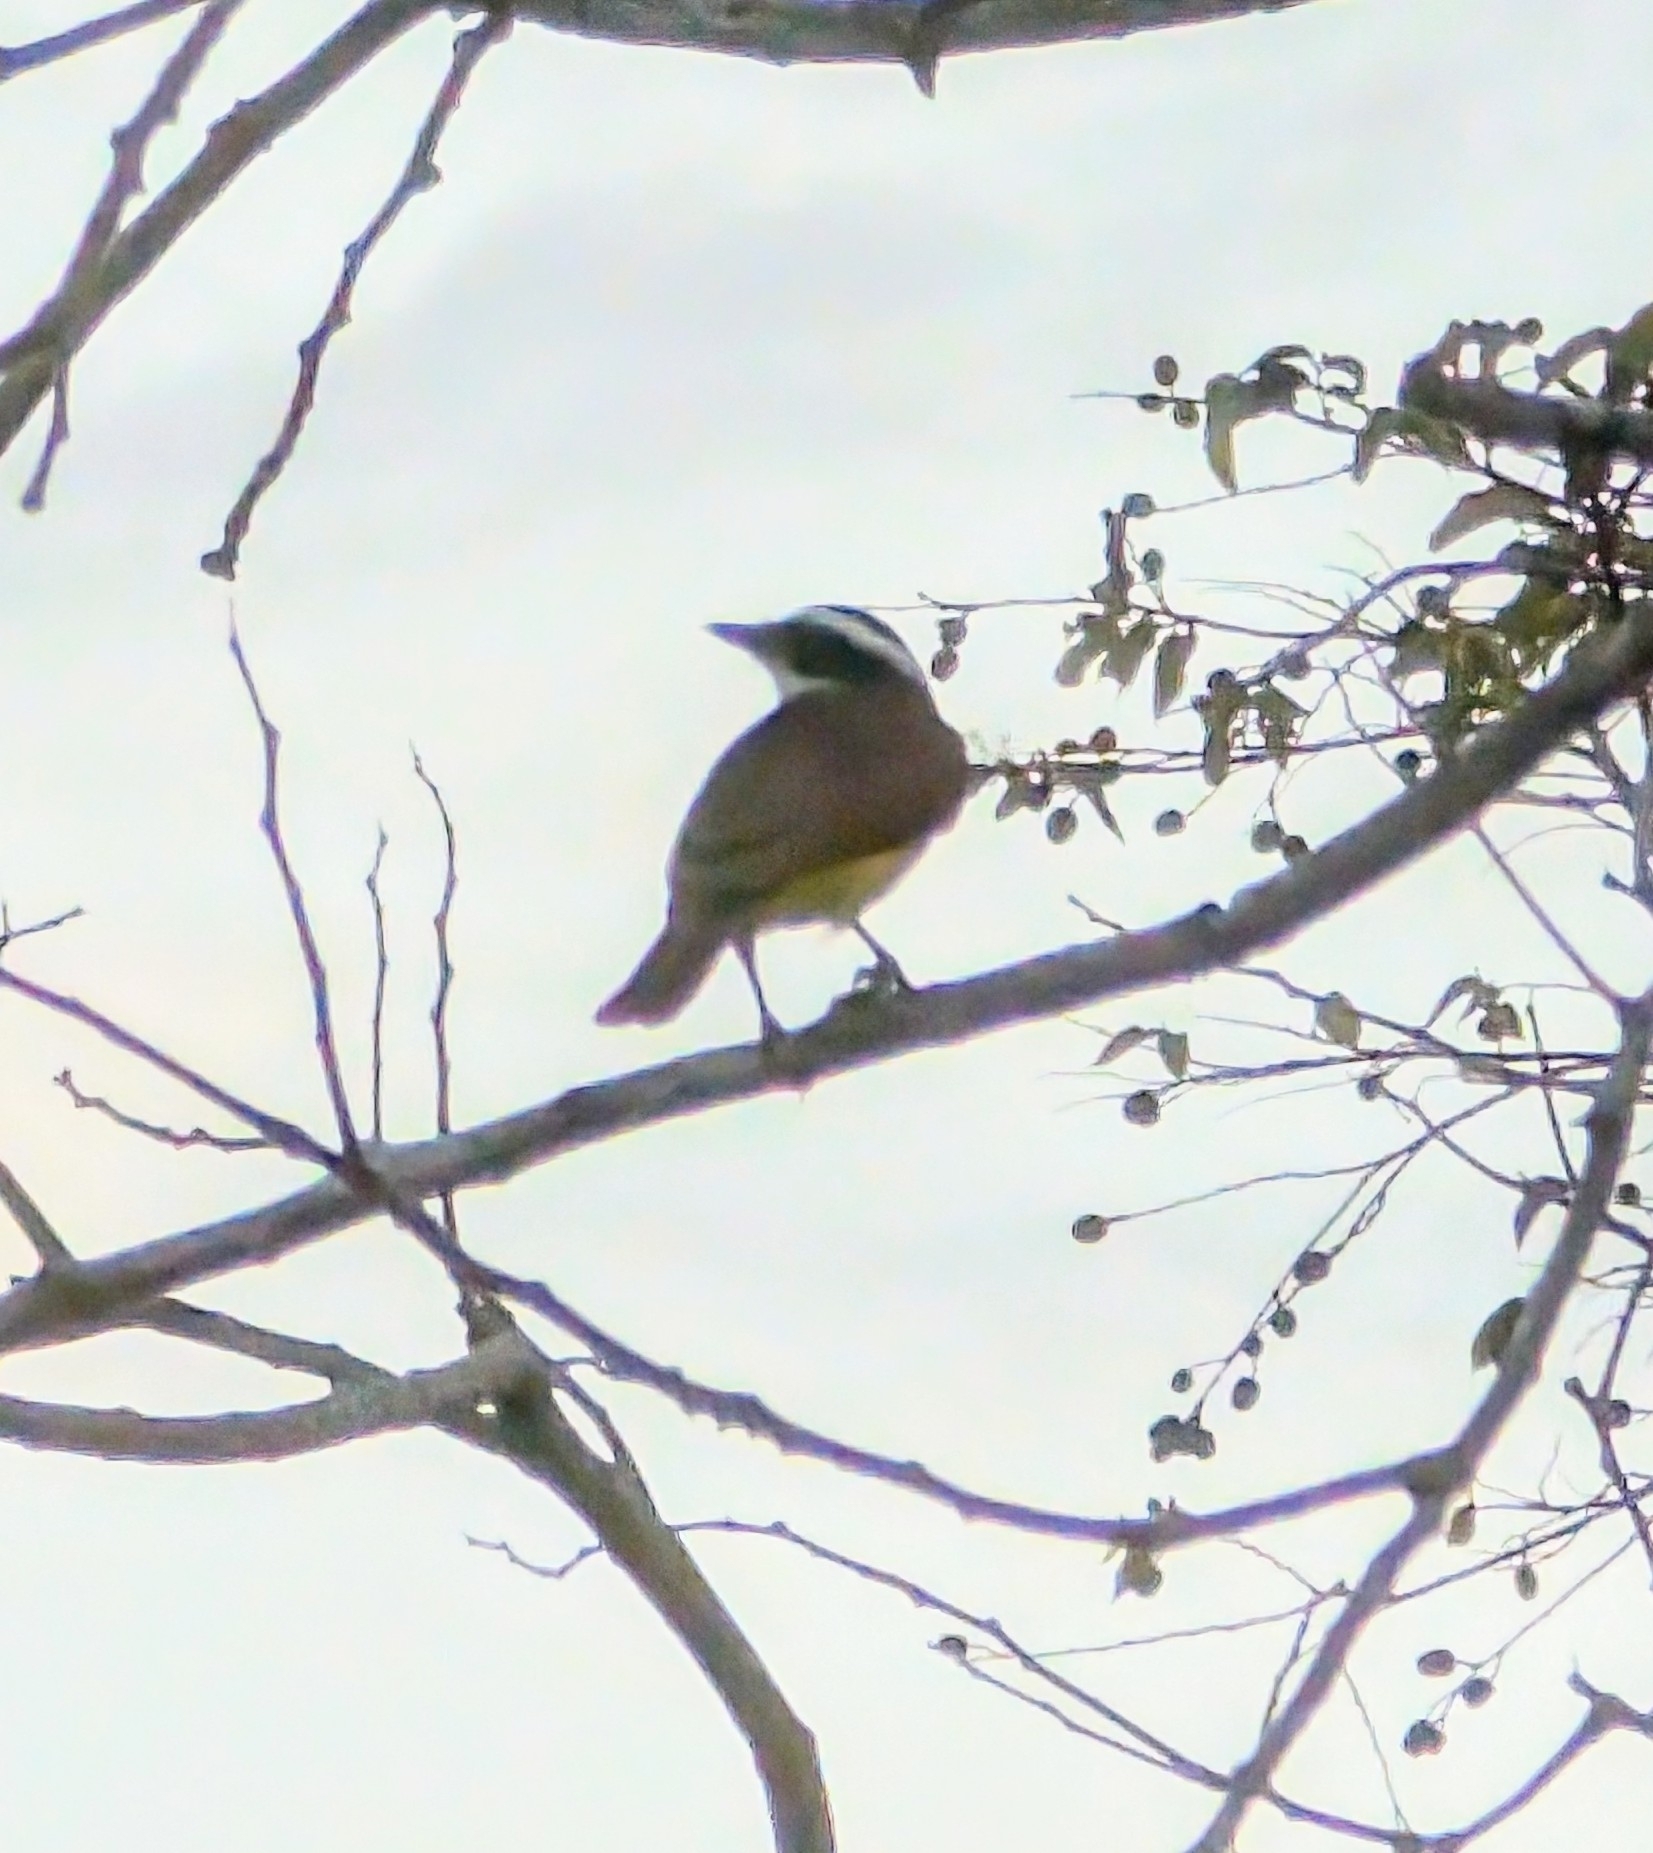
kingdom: Animalia
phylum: Chordata
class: Aves
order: Passeriformes
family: Tyrannidae
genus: Pitangus
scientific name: Pitangus sulphuratus
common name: Great kiskadee
